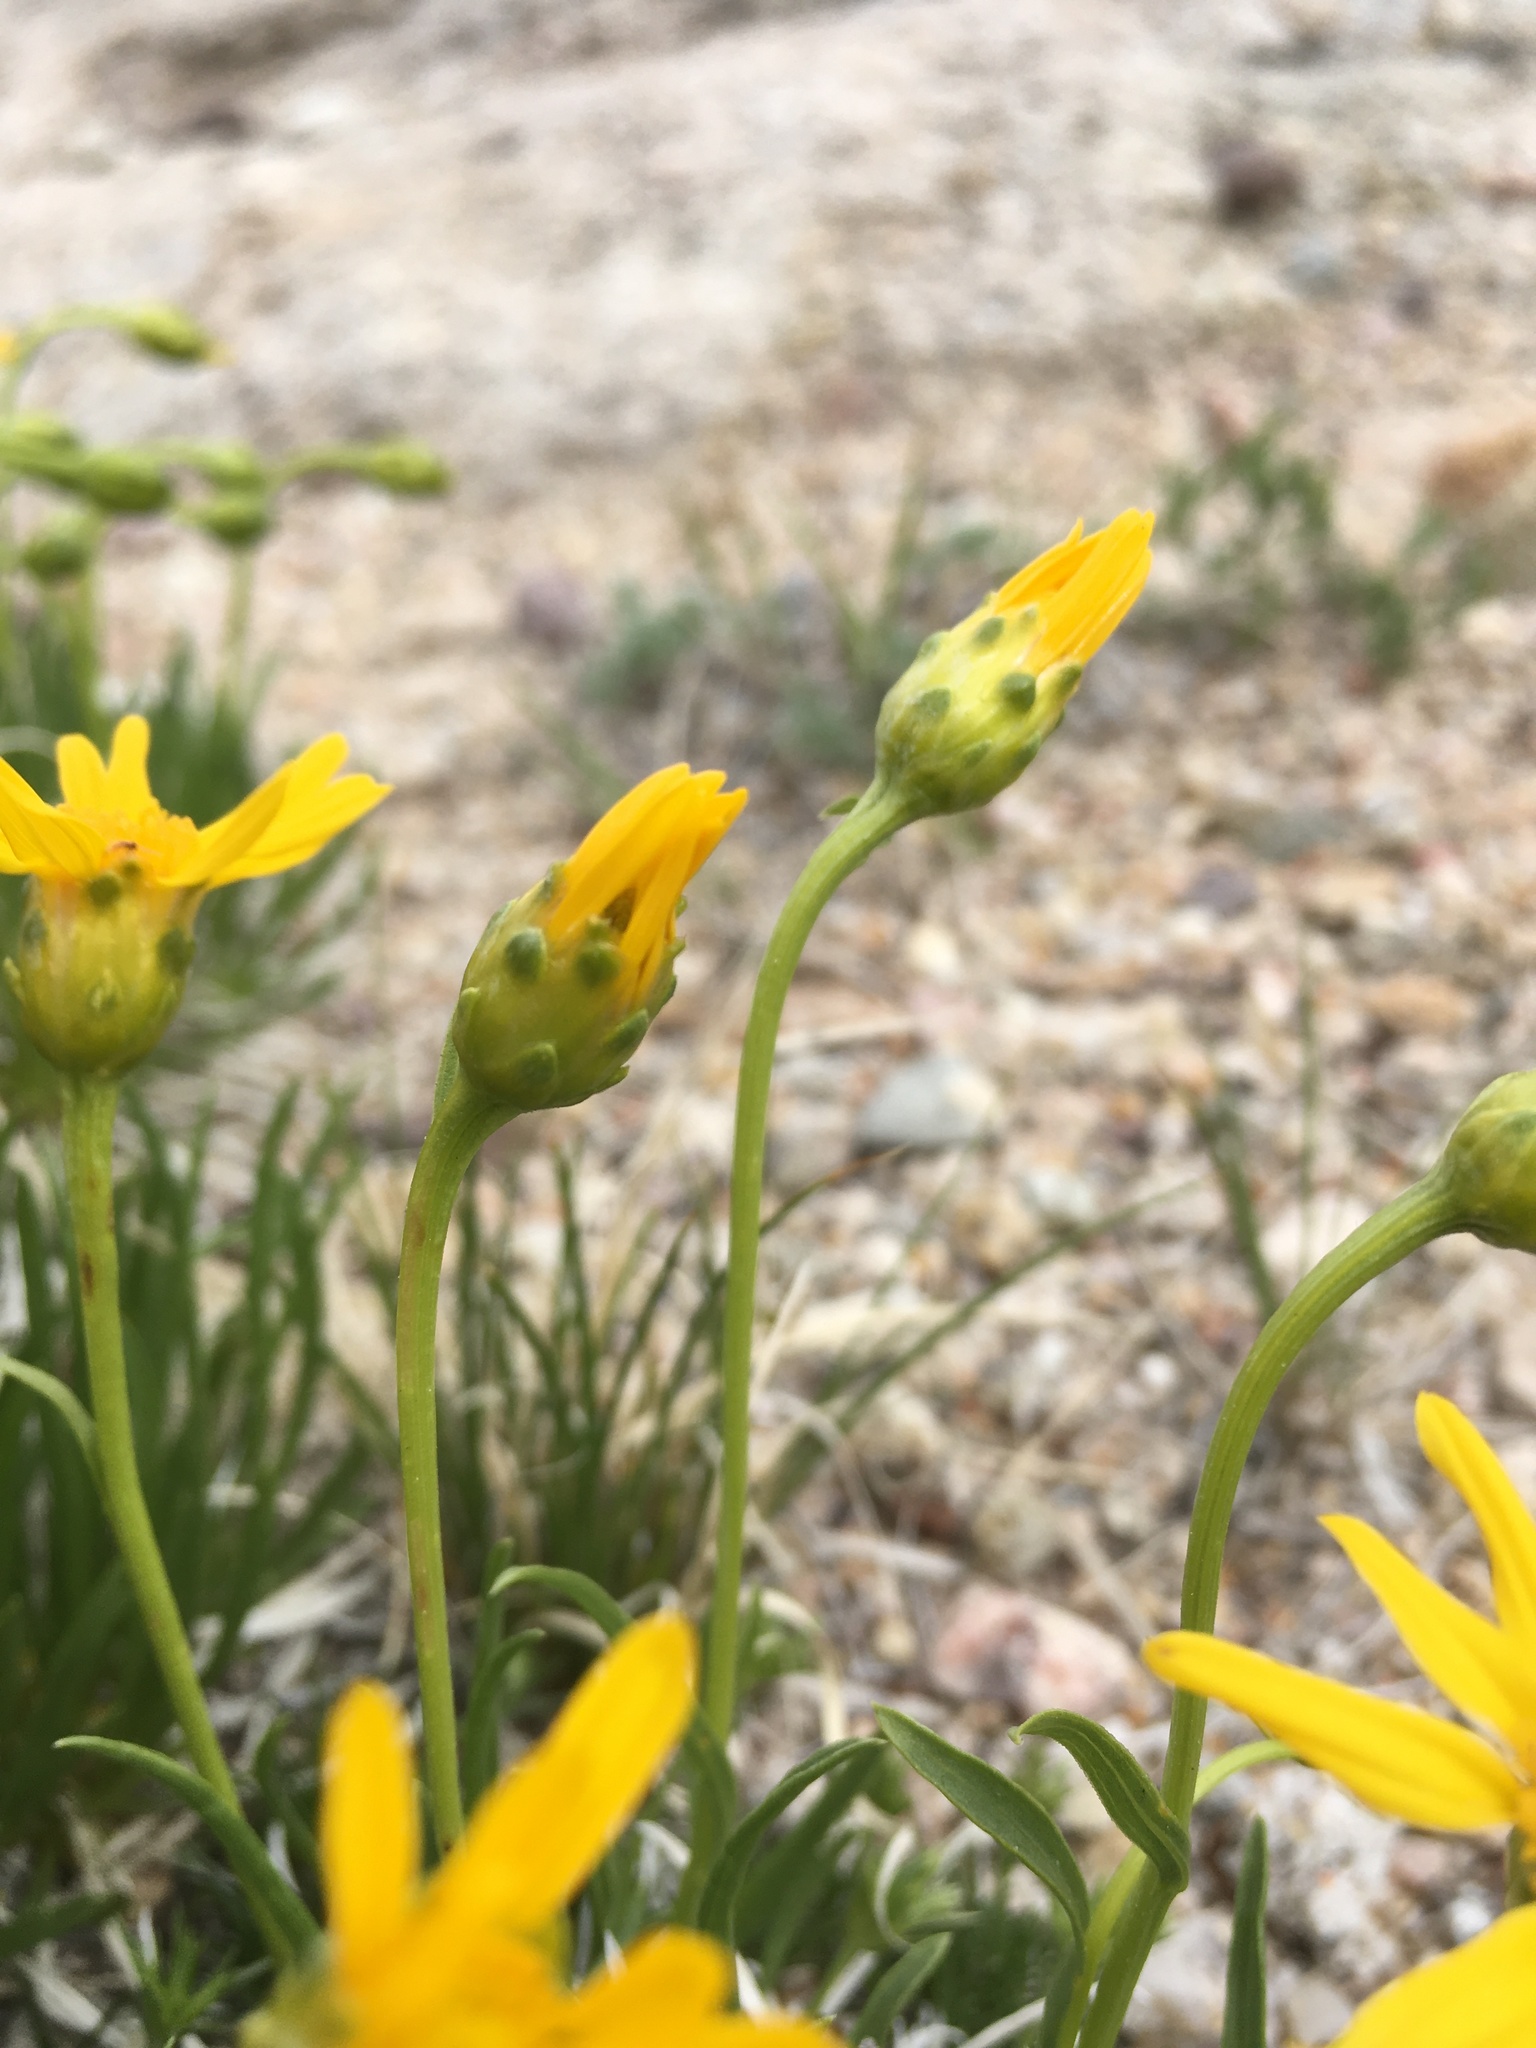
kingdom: Plantae
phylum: Tracheophyta
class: Magnoliopsida
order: Asterales
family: Asteraceae
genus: Stenotus
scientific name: Stenotus armerioides
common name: Thrifty goldenweed
